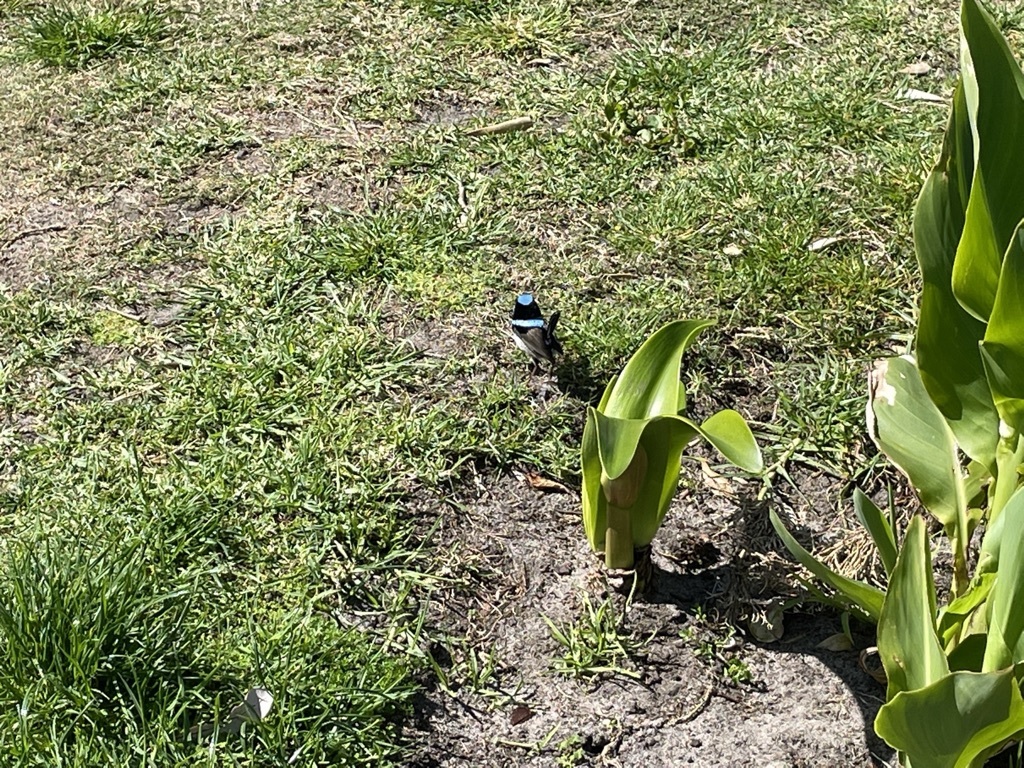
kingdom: Animalia
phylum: Chordata
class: Aves
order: Passeriformes
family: Maluridae
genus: Malurus
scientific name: Malurus cyaneus
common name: Superb fairywren
